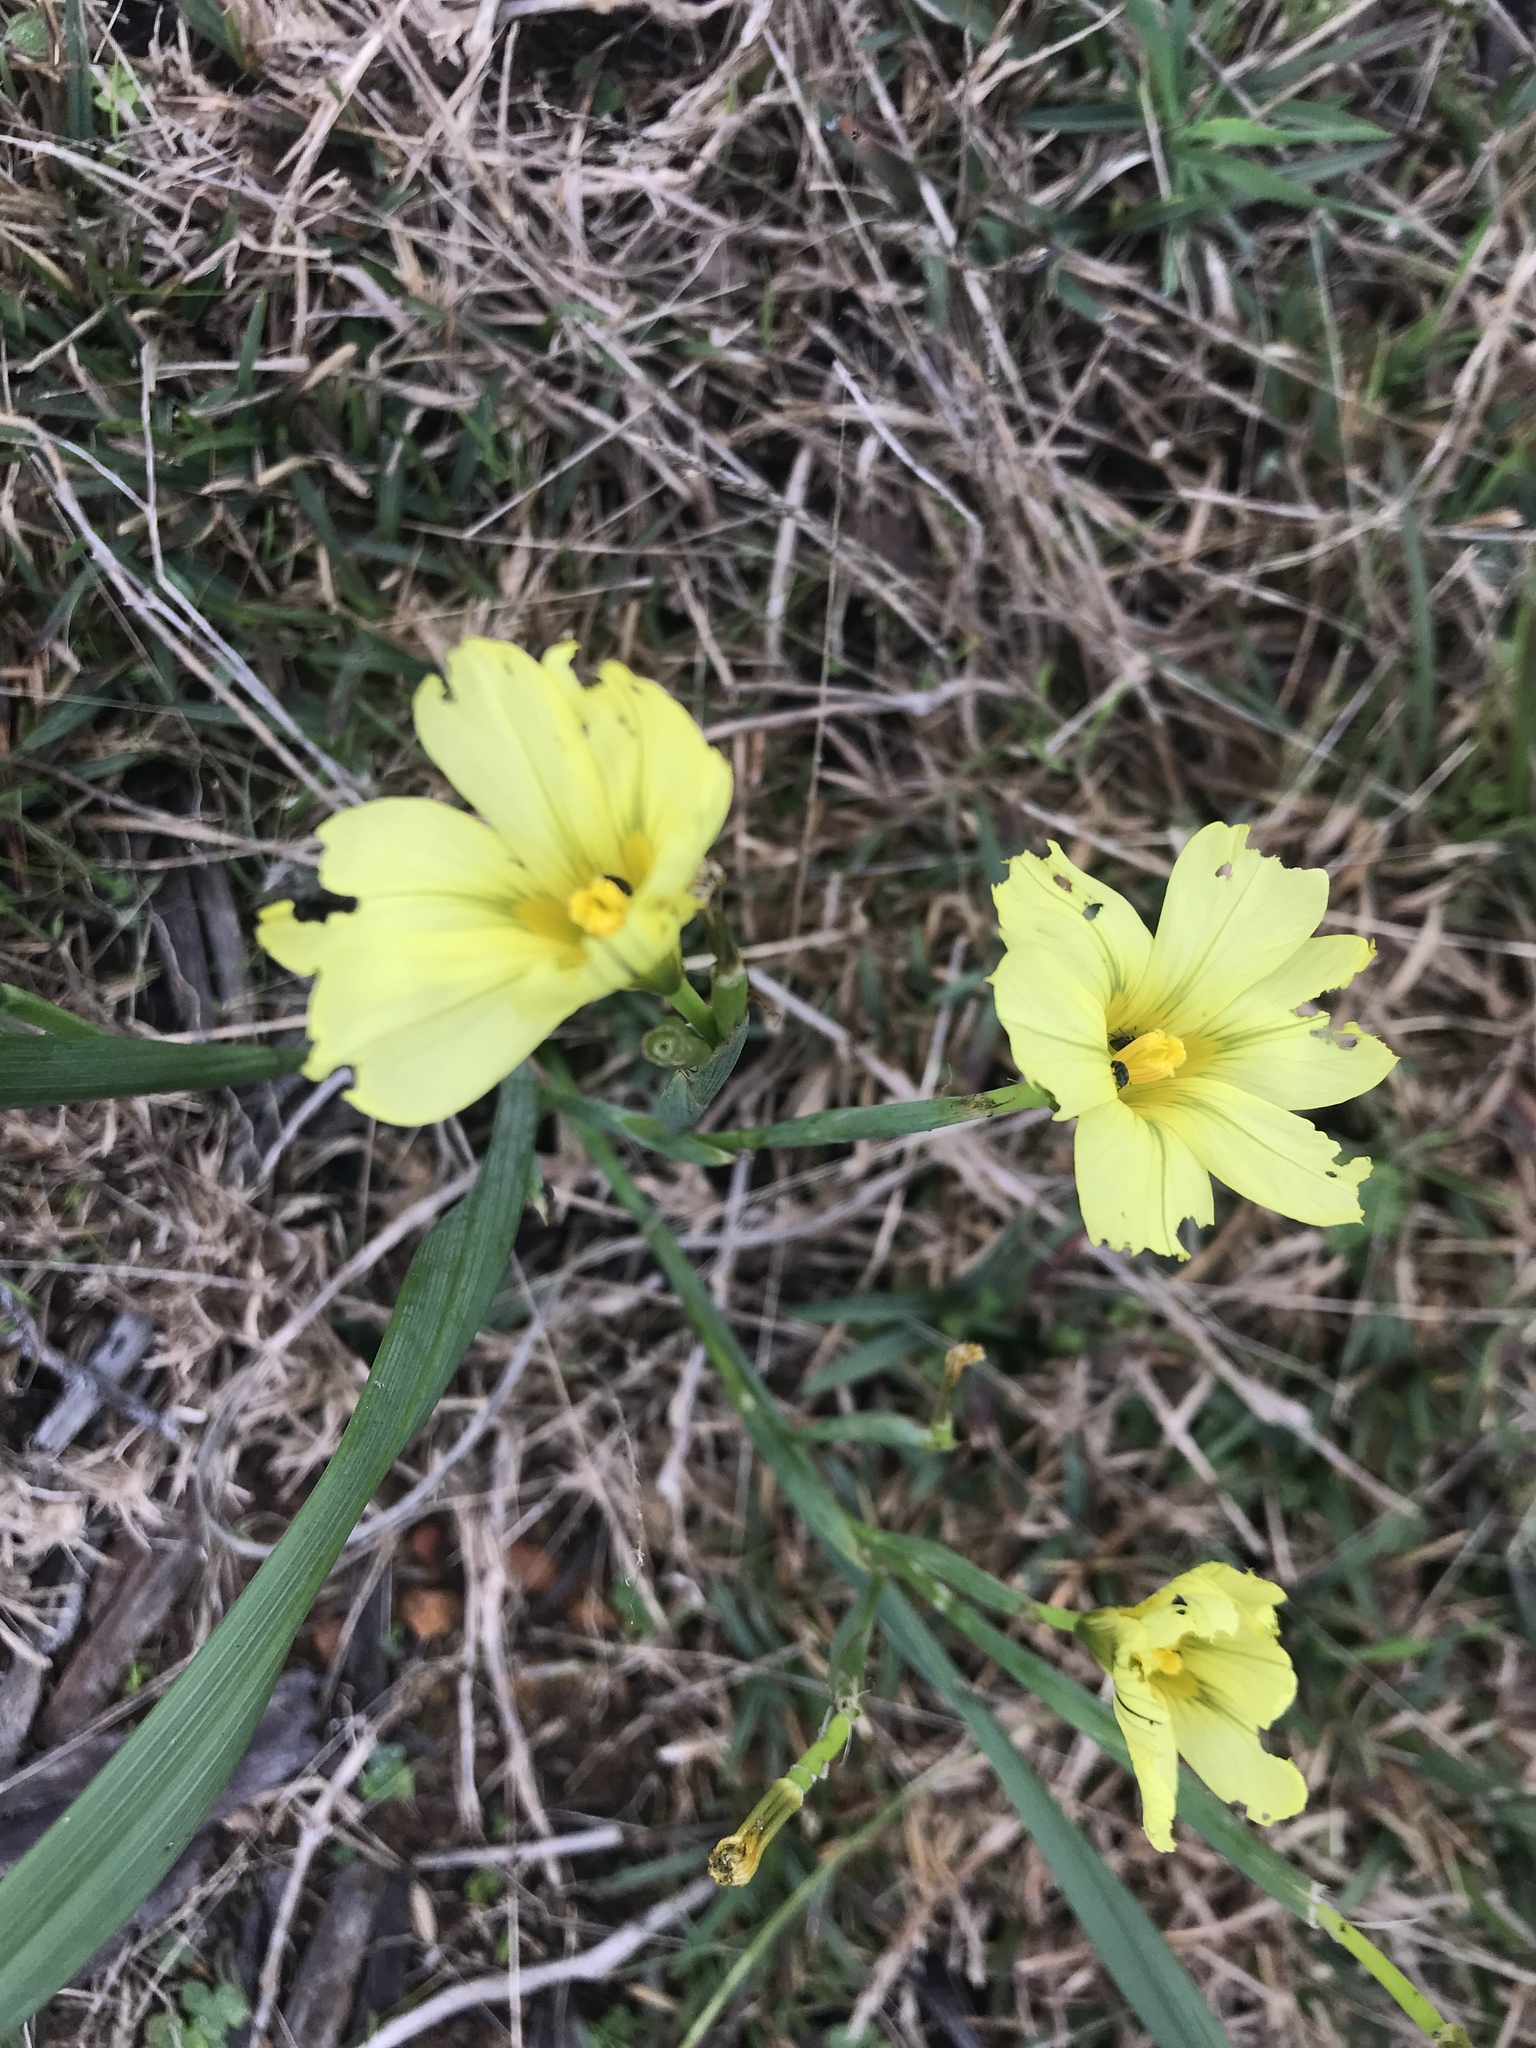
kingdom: Plantae
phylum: Tracheophyta
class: Liliopsida
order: Asparagales
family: Iridaceae
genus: Moraea
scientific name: Moraea collina
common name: Cape-tulip
